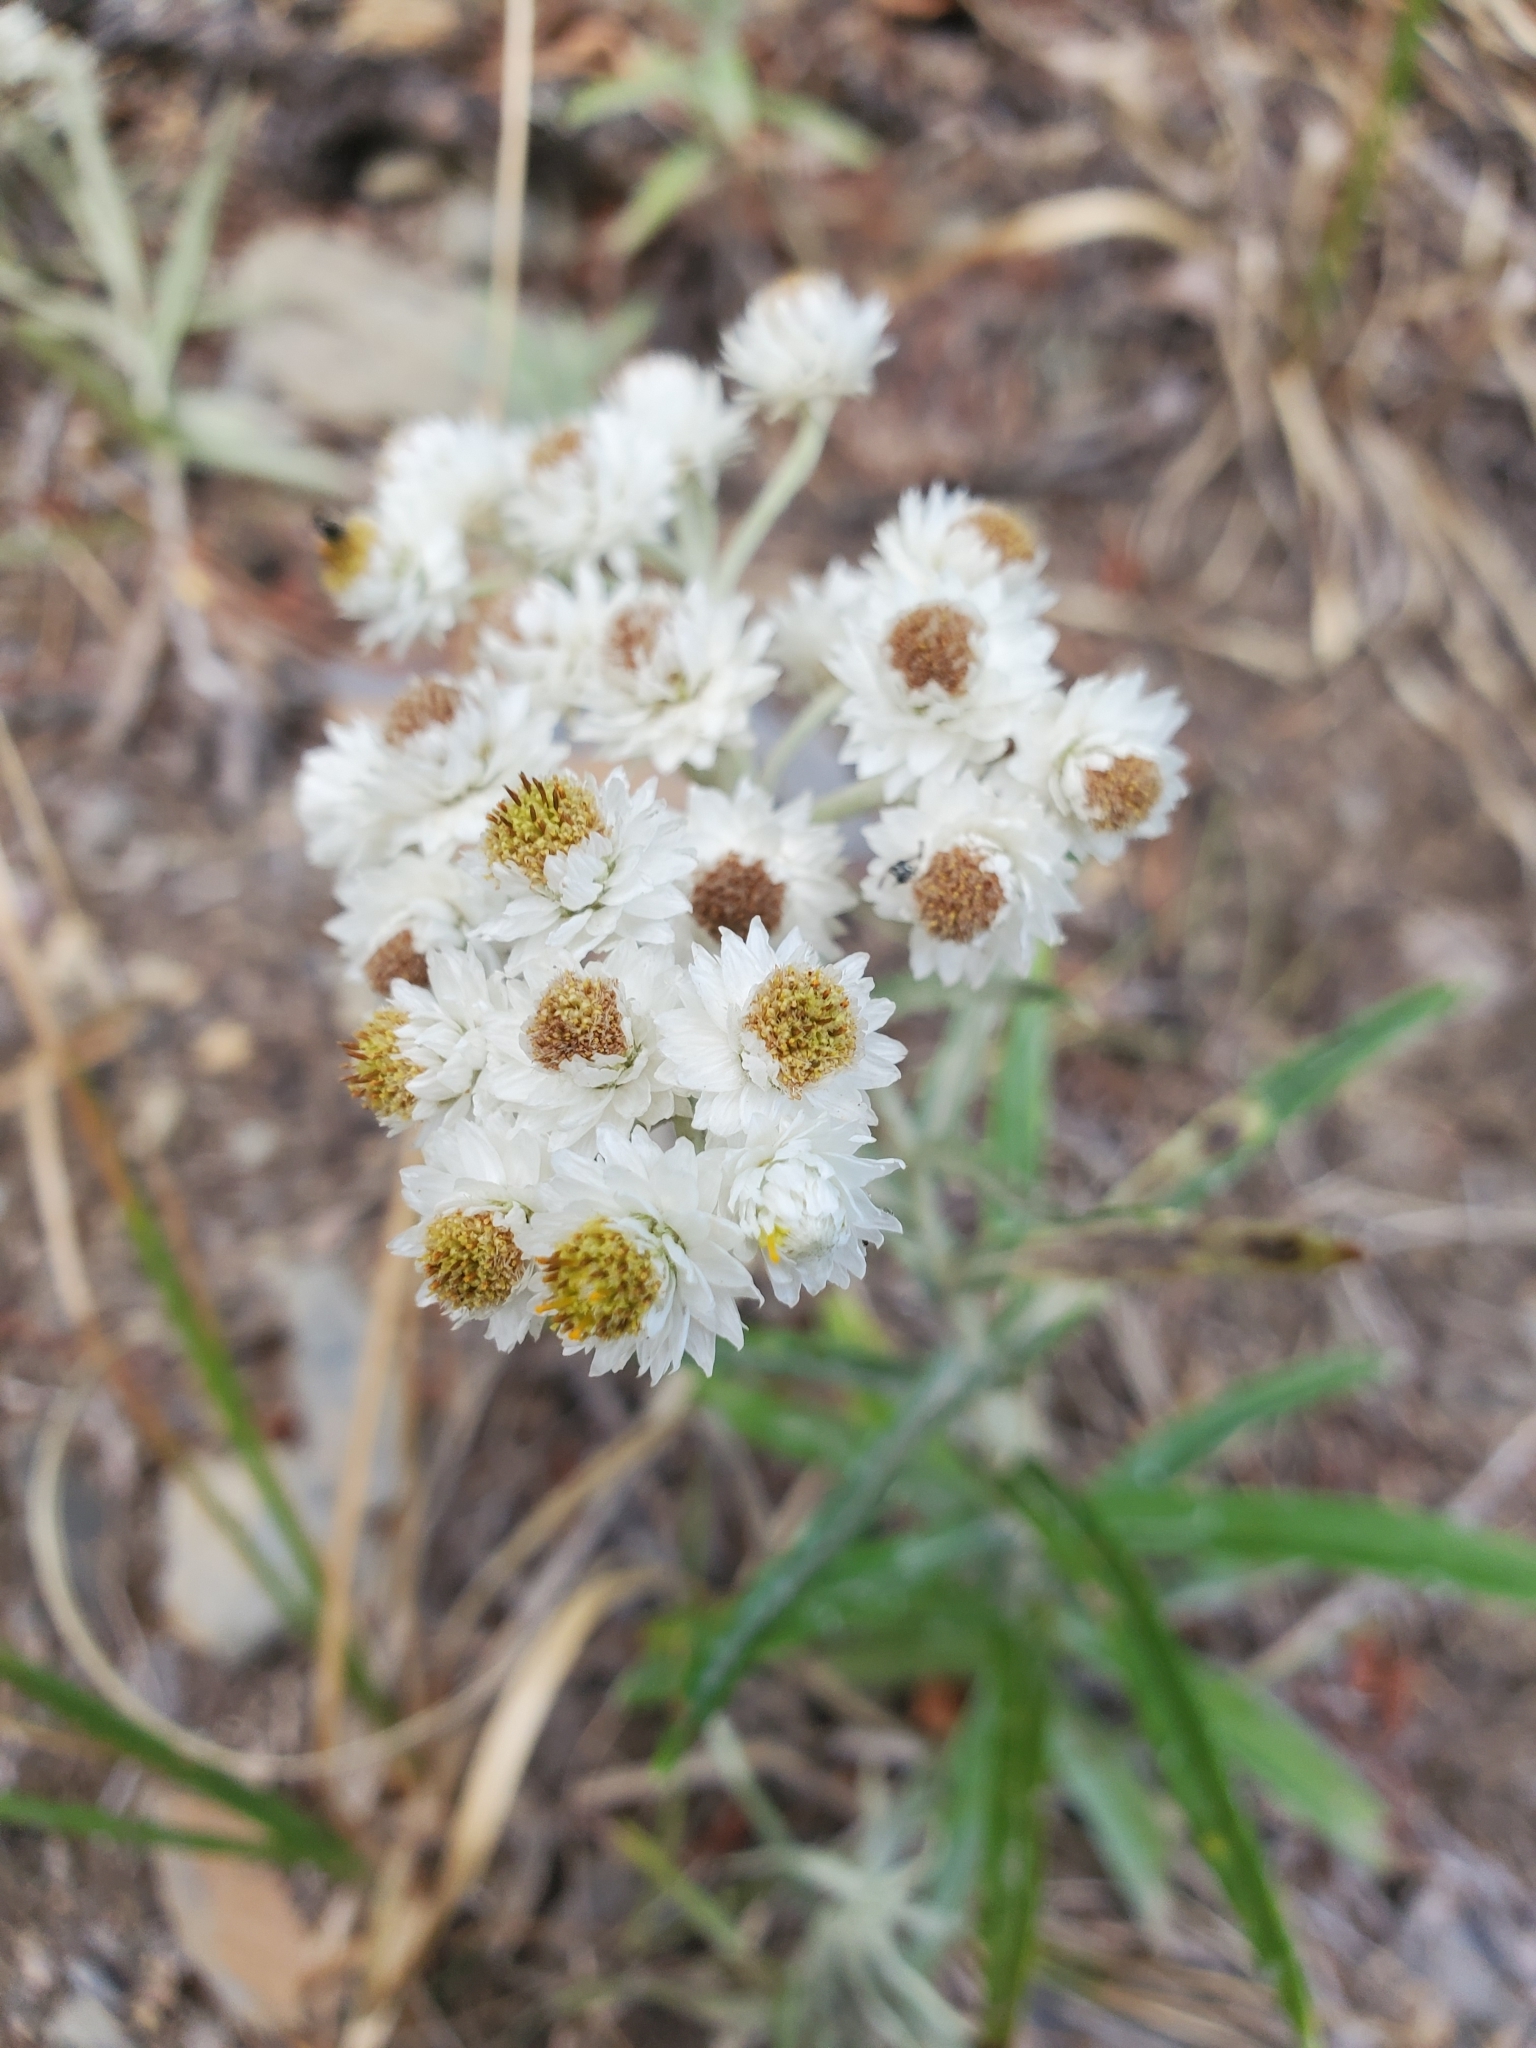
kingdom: Plantae
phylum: Tracheophyta
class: Magnoliopsida
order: Asterales
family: Asteraceae
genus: Anaphalis
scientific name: Anaphalis margaritacea
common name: Pearly everlasting
